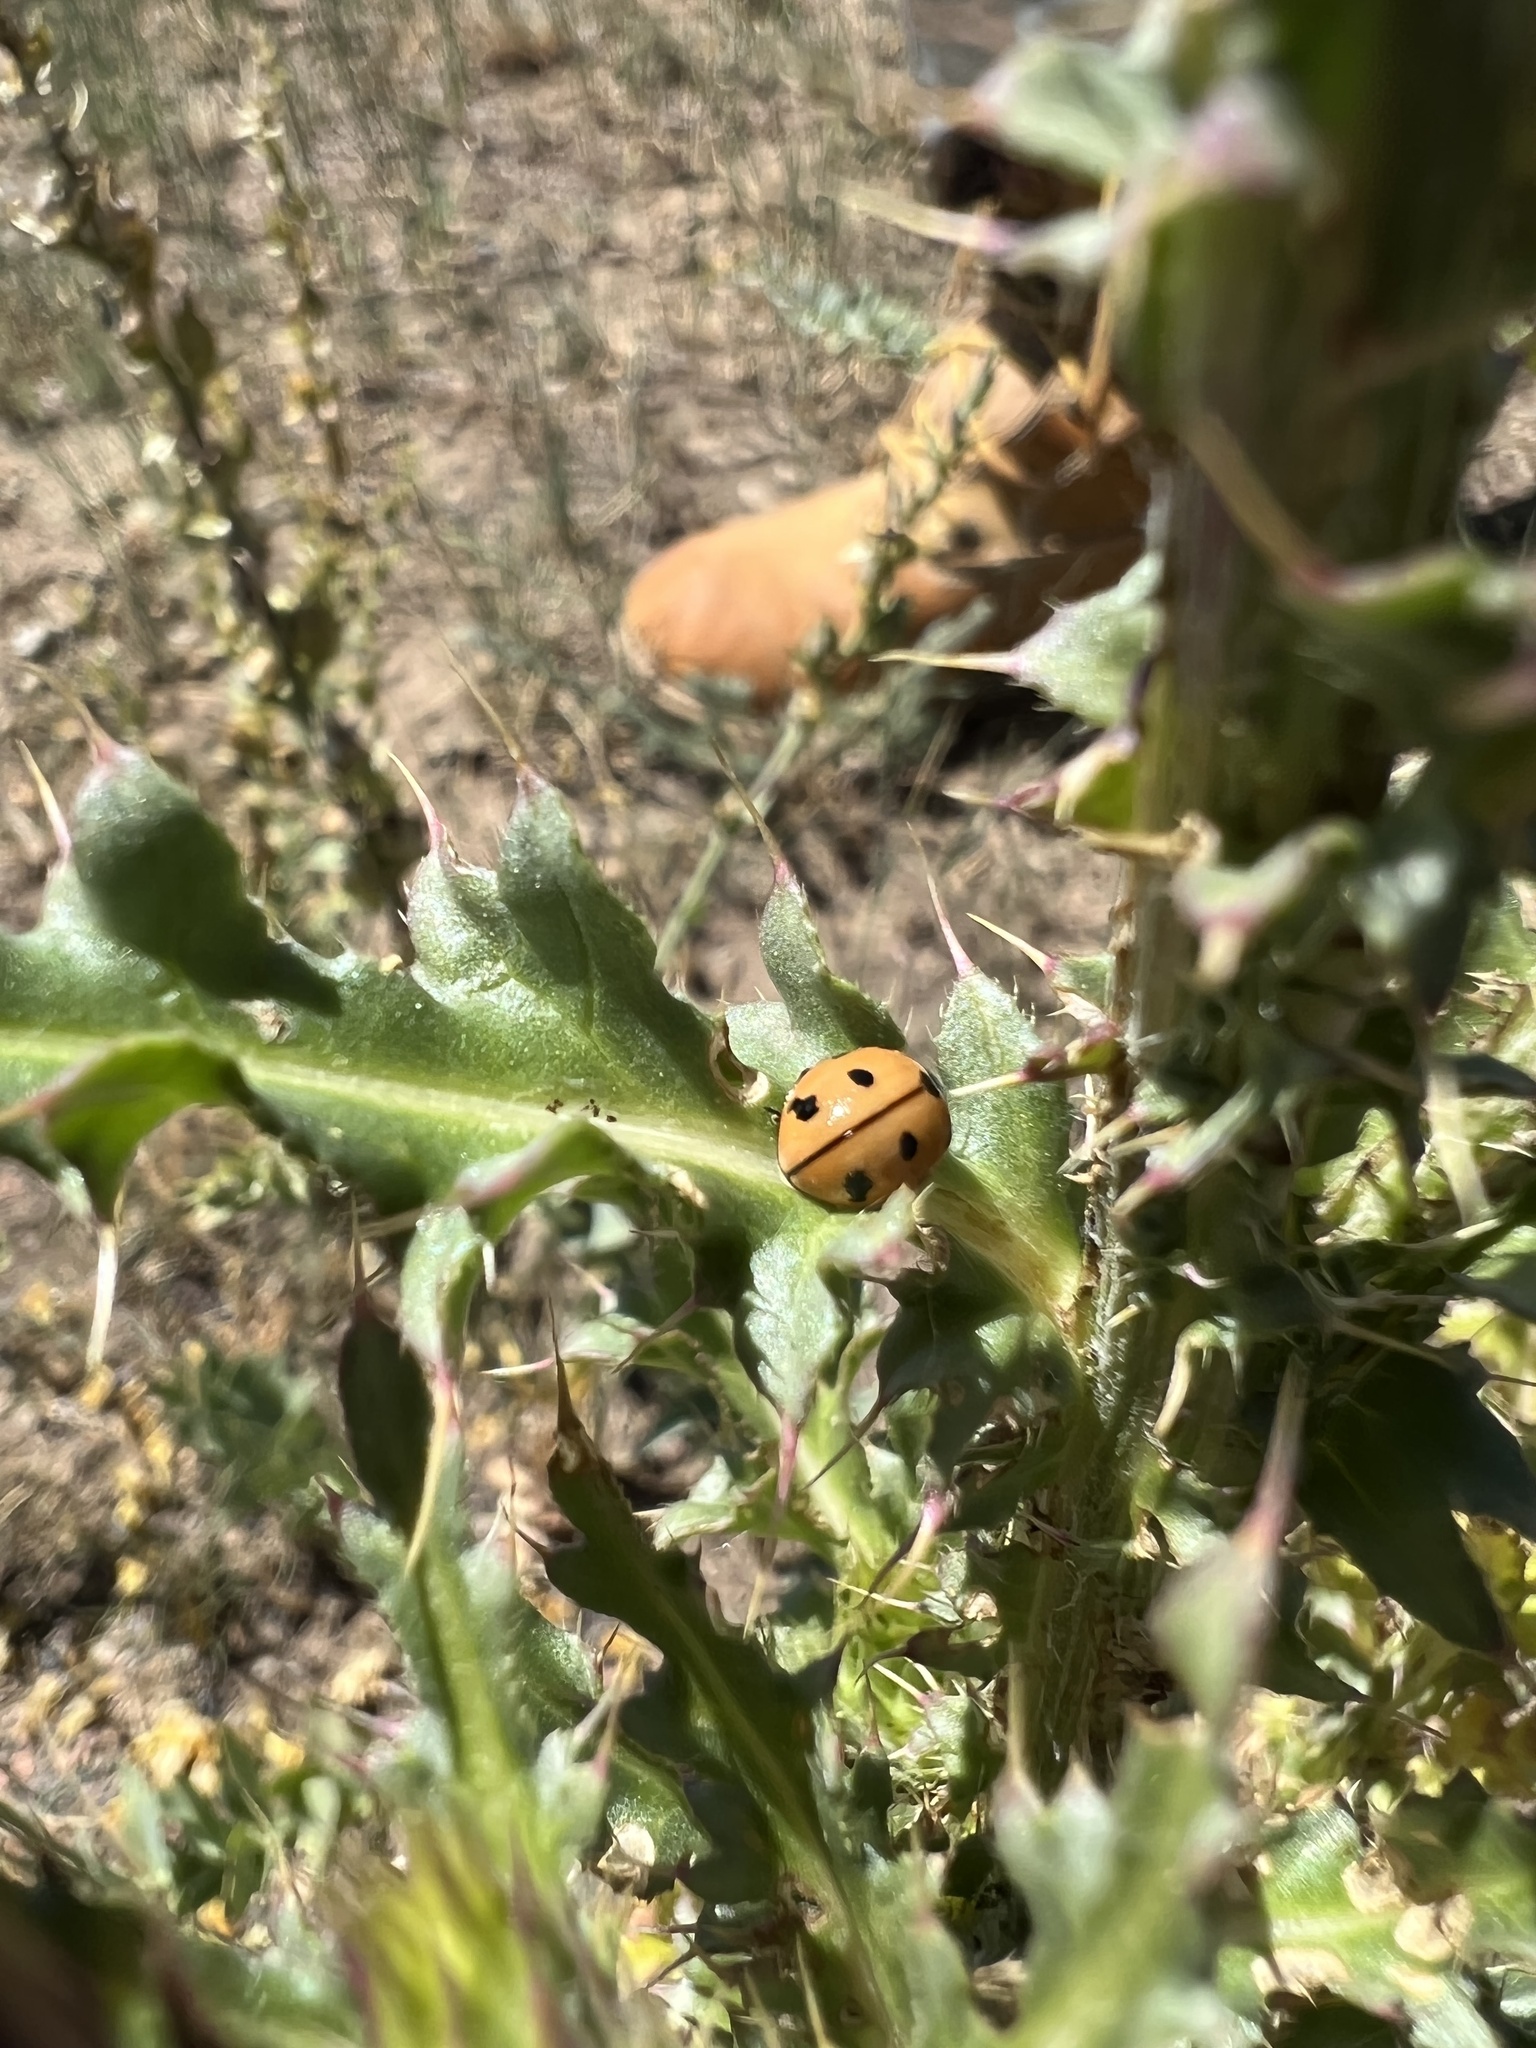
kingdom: Animalia
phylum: Arthropoda
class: Insecta
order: Coleoptera
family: Coccinellidae
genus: Coccinella
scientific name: Coccinella novemnotata
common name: Nine-spotted lady beetle
